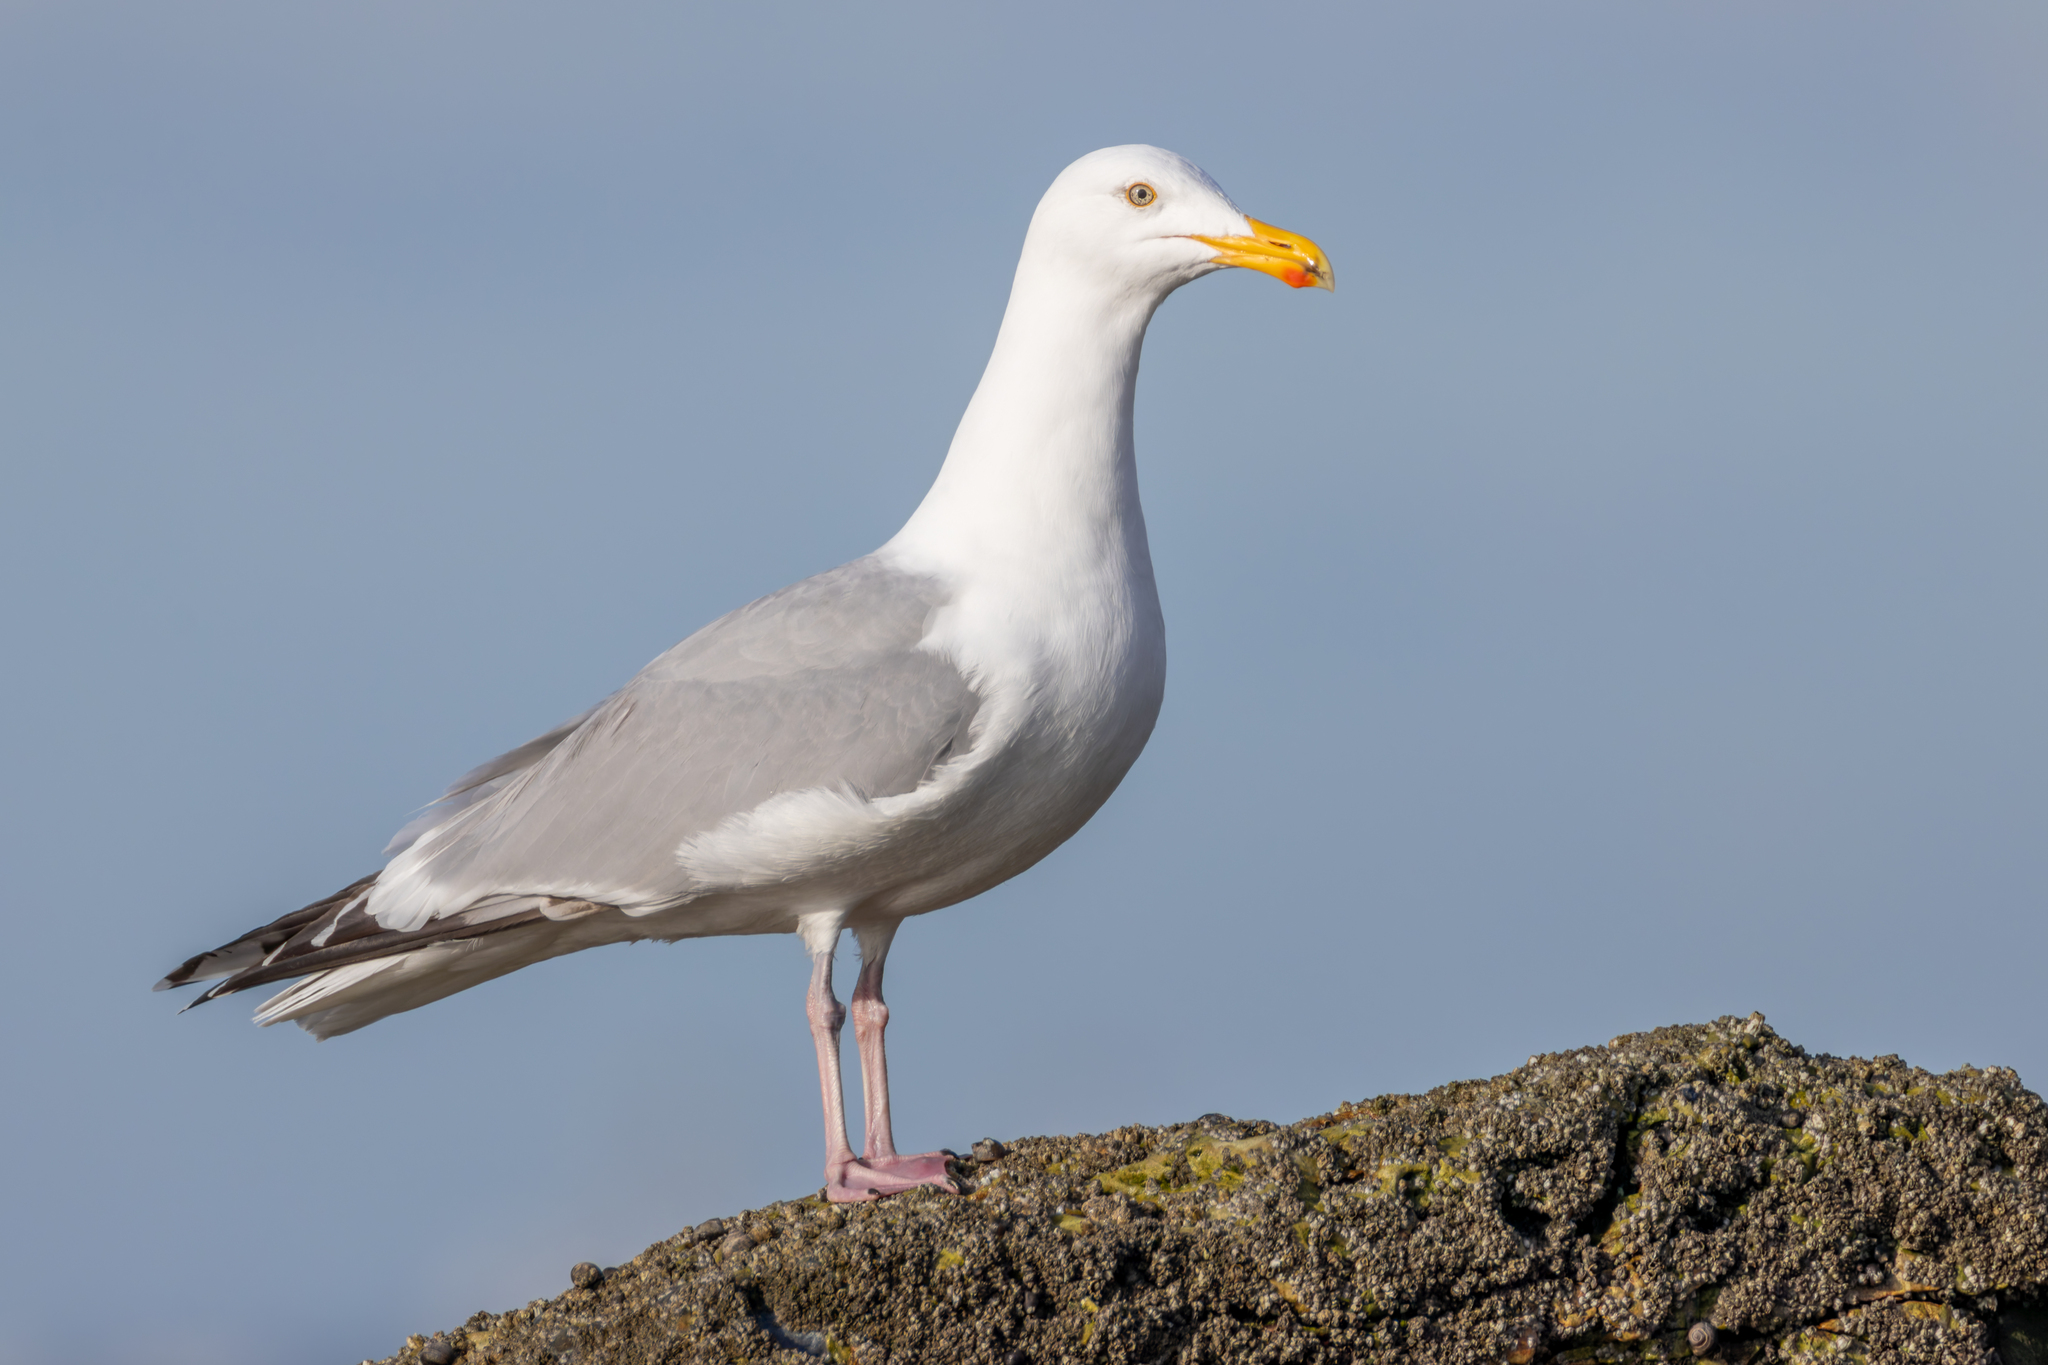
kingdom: Animalia
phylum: Chordata
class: Aves
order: Charadriiformes
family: Laridae
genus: Larus
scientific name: Larus argentatus
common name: Herring gull
